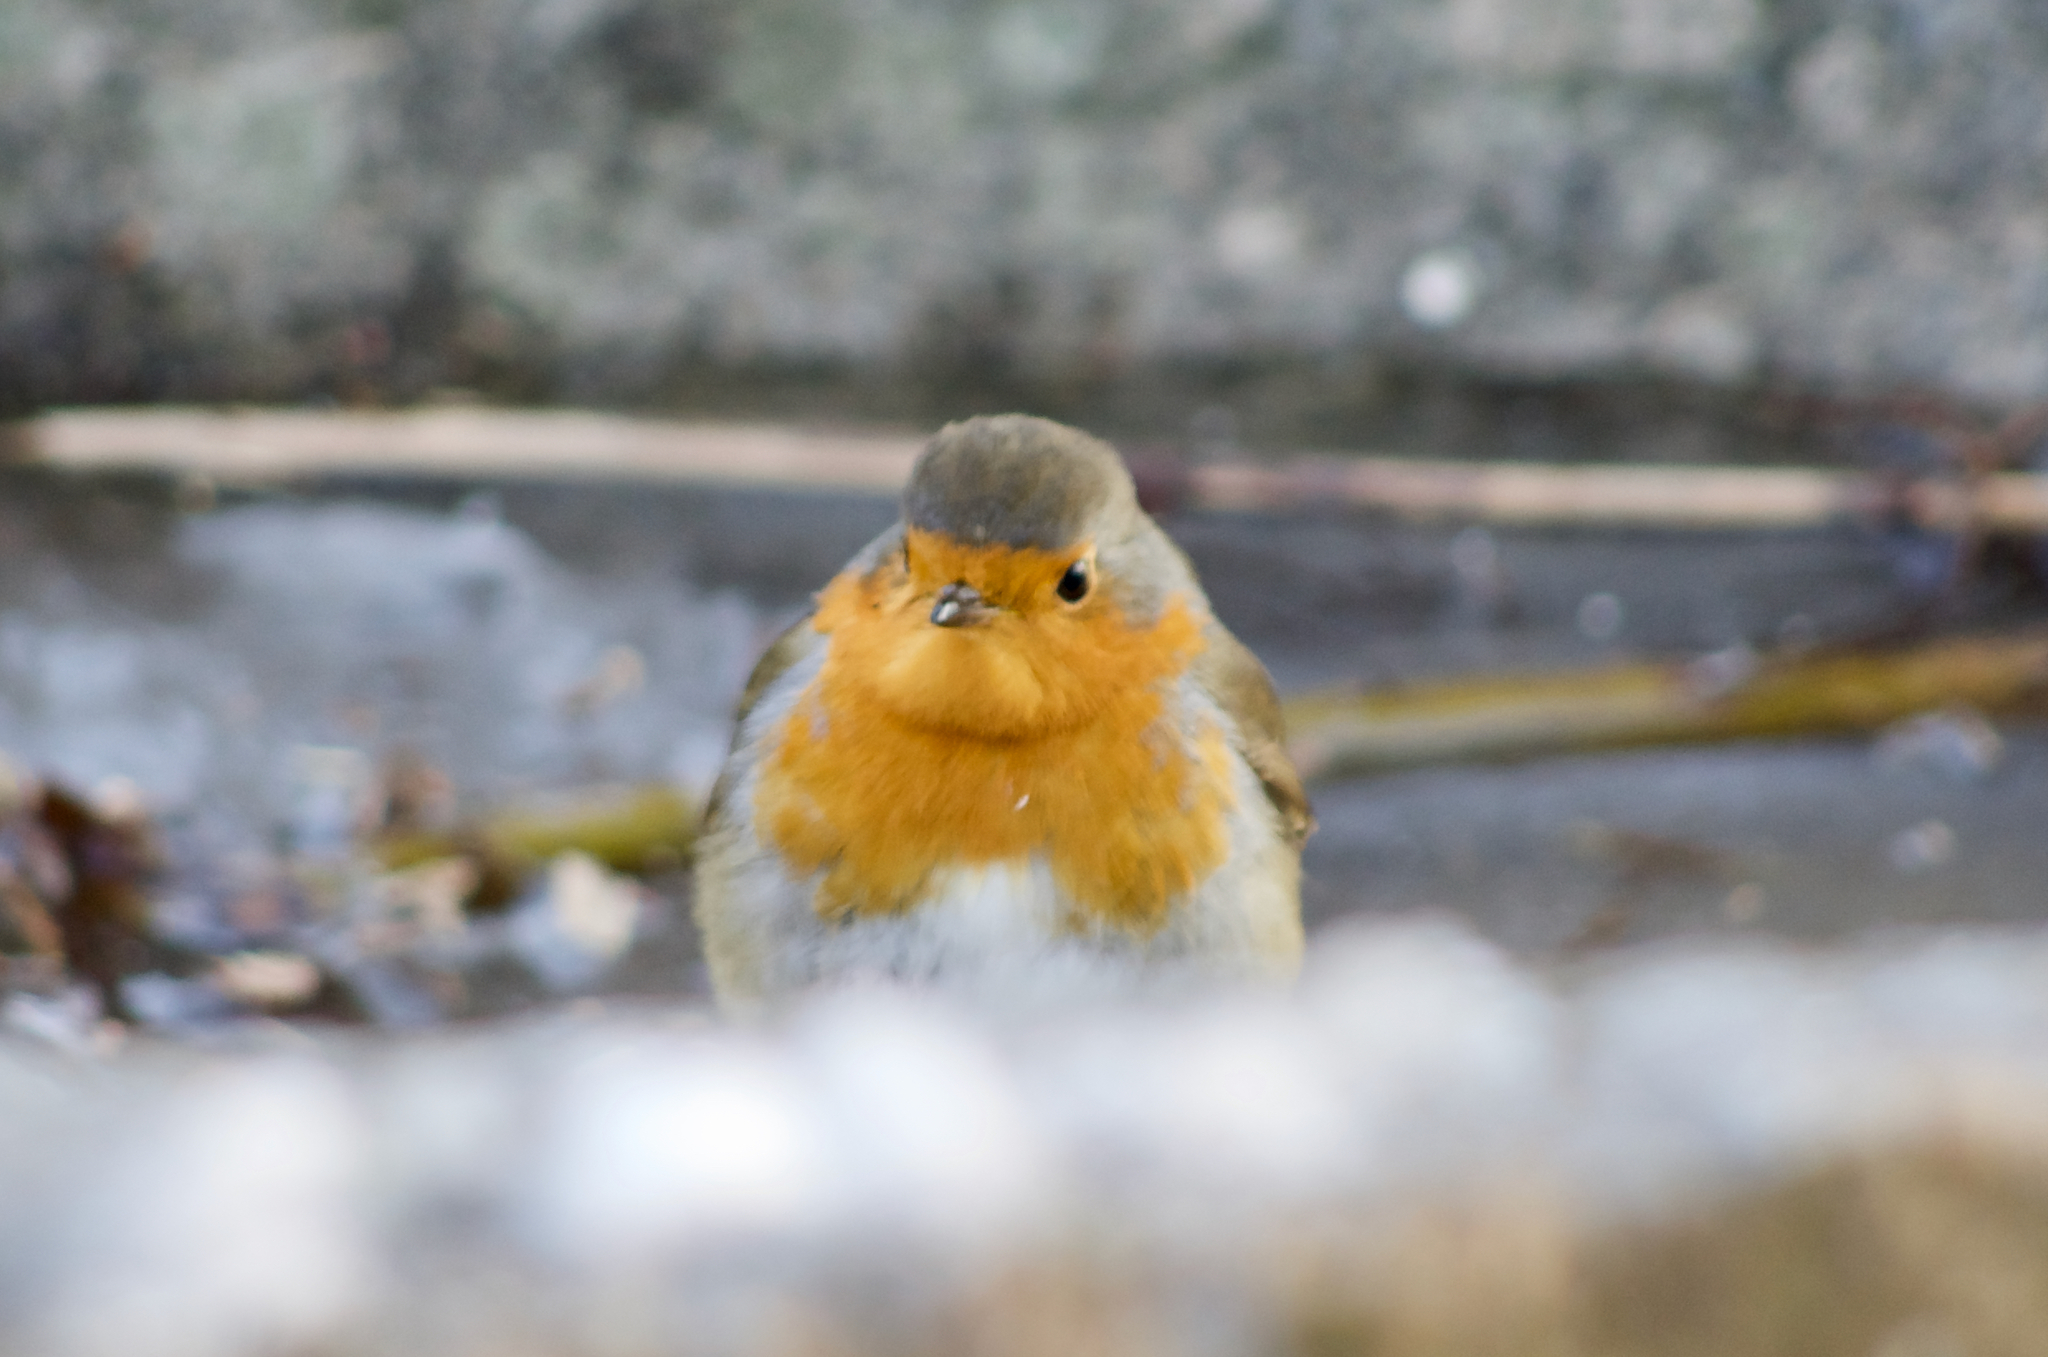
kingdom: Animalia
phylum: Chordata
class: Aves
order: Passeriformes
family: Muscicapidae
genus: Erithacus
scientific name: Erithacus rubecula
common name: European robin
